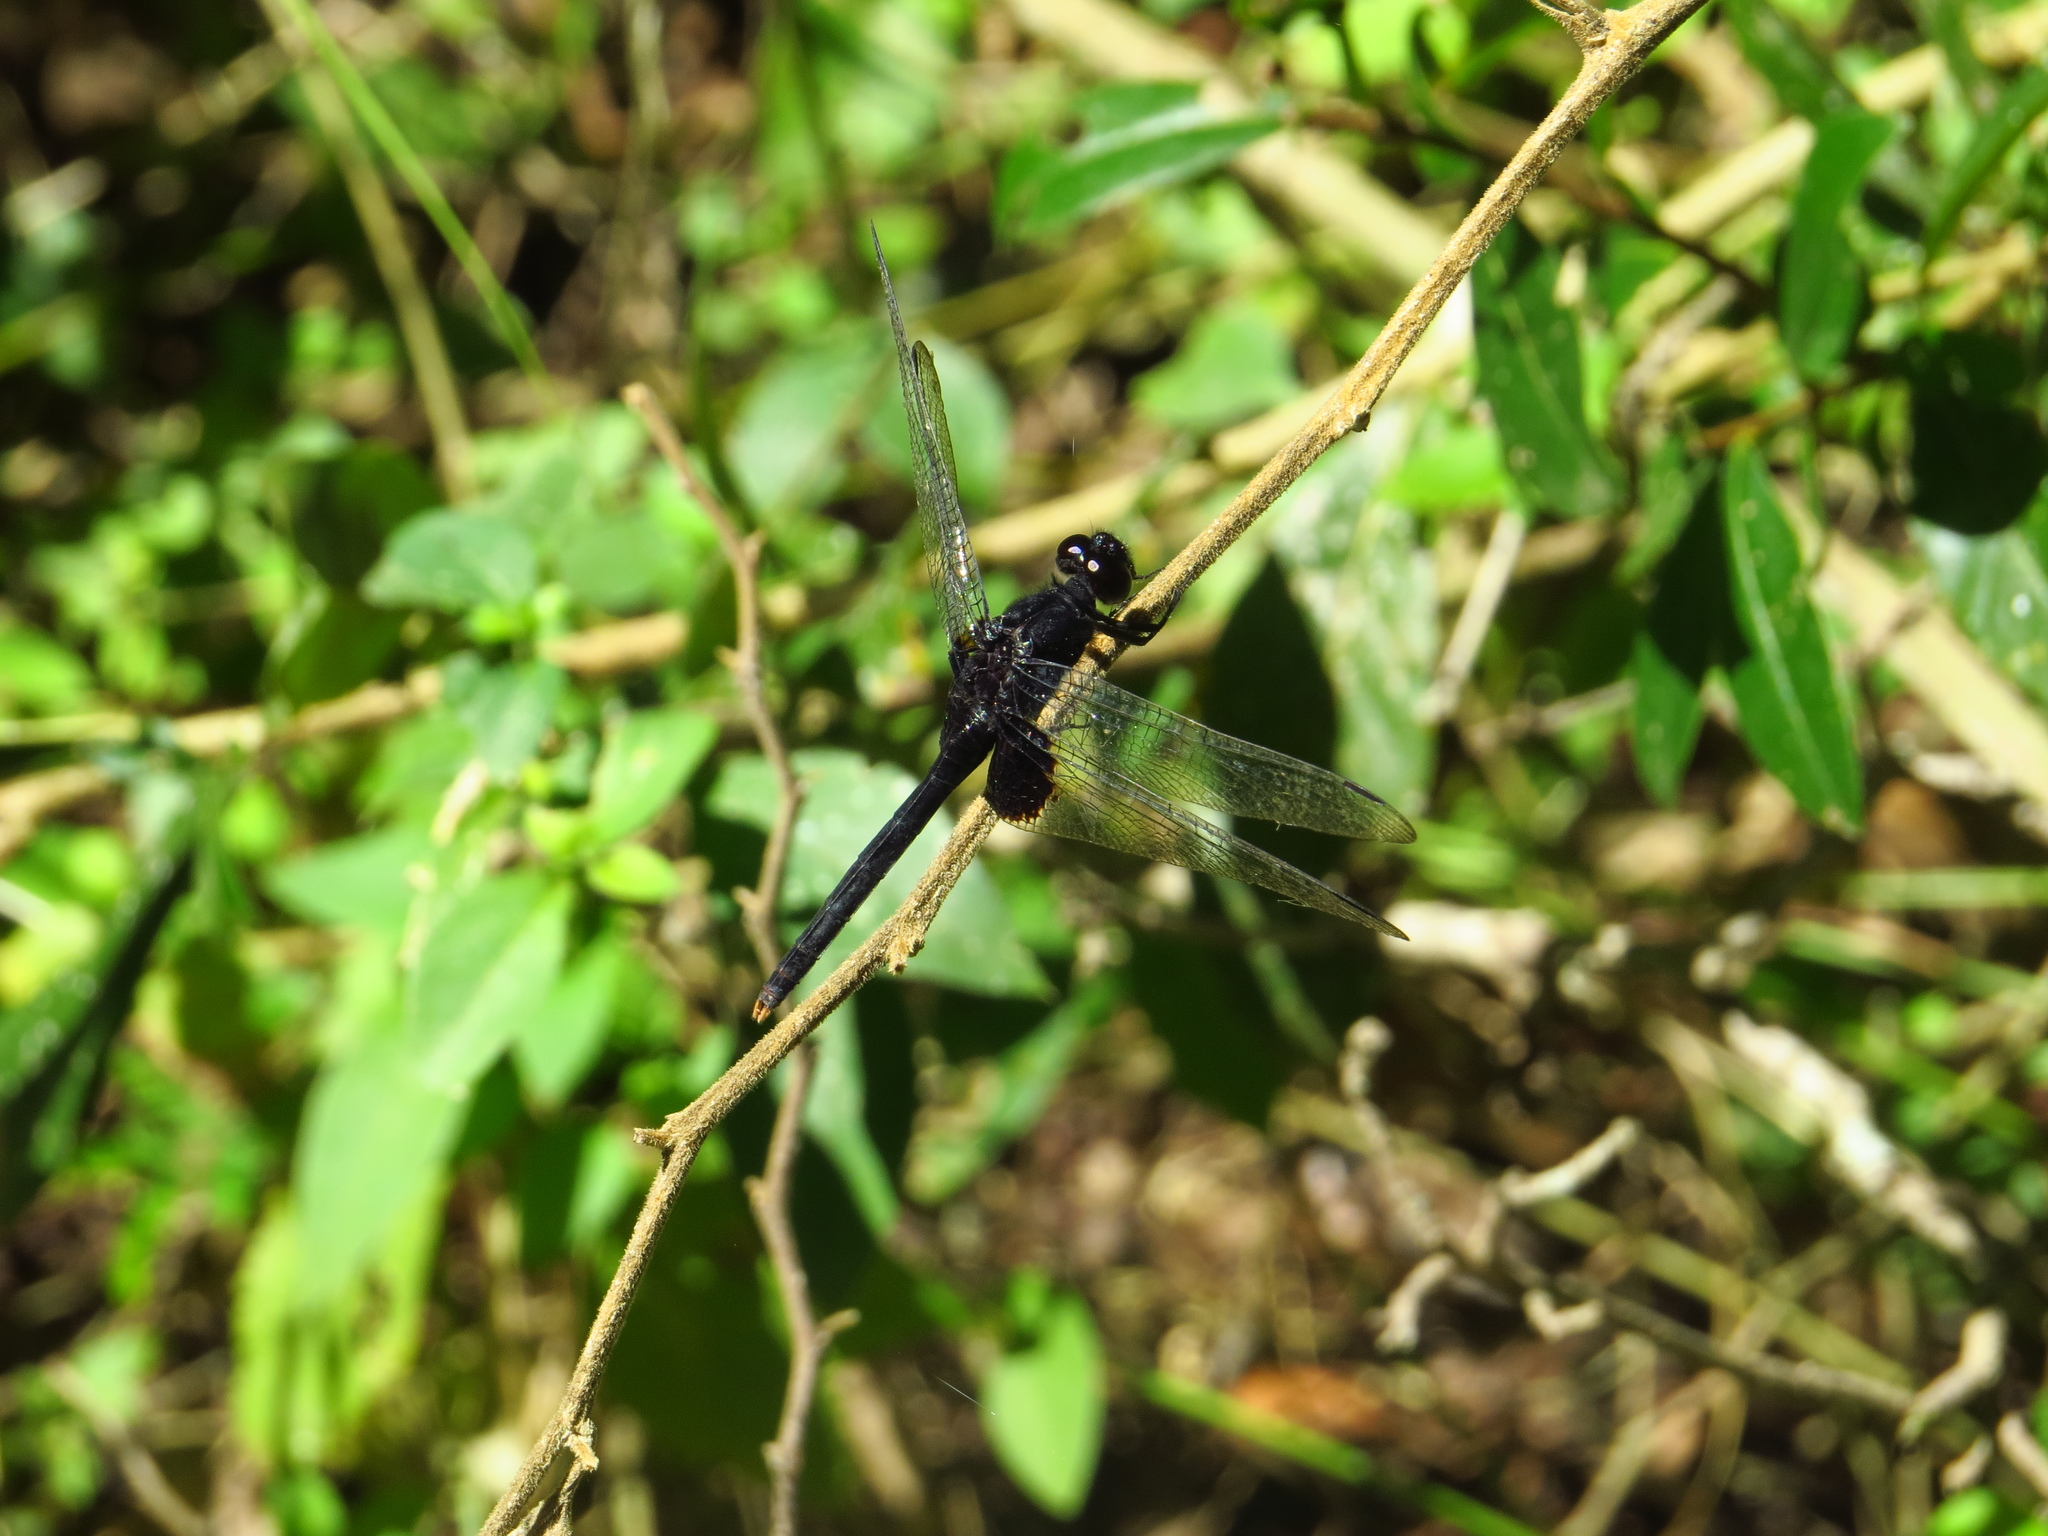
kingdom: Animalia
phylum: Arthropoda
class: Insecta
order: Odonata
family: Libellulidae
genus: Erythemis
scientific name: Erythemis attala
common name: Black pondhawk
